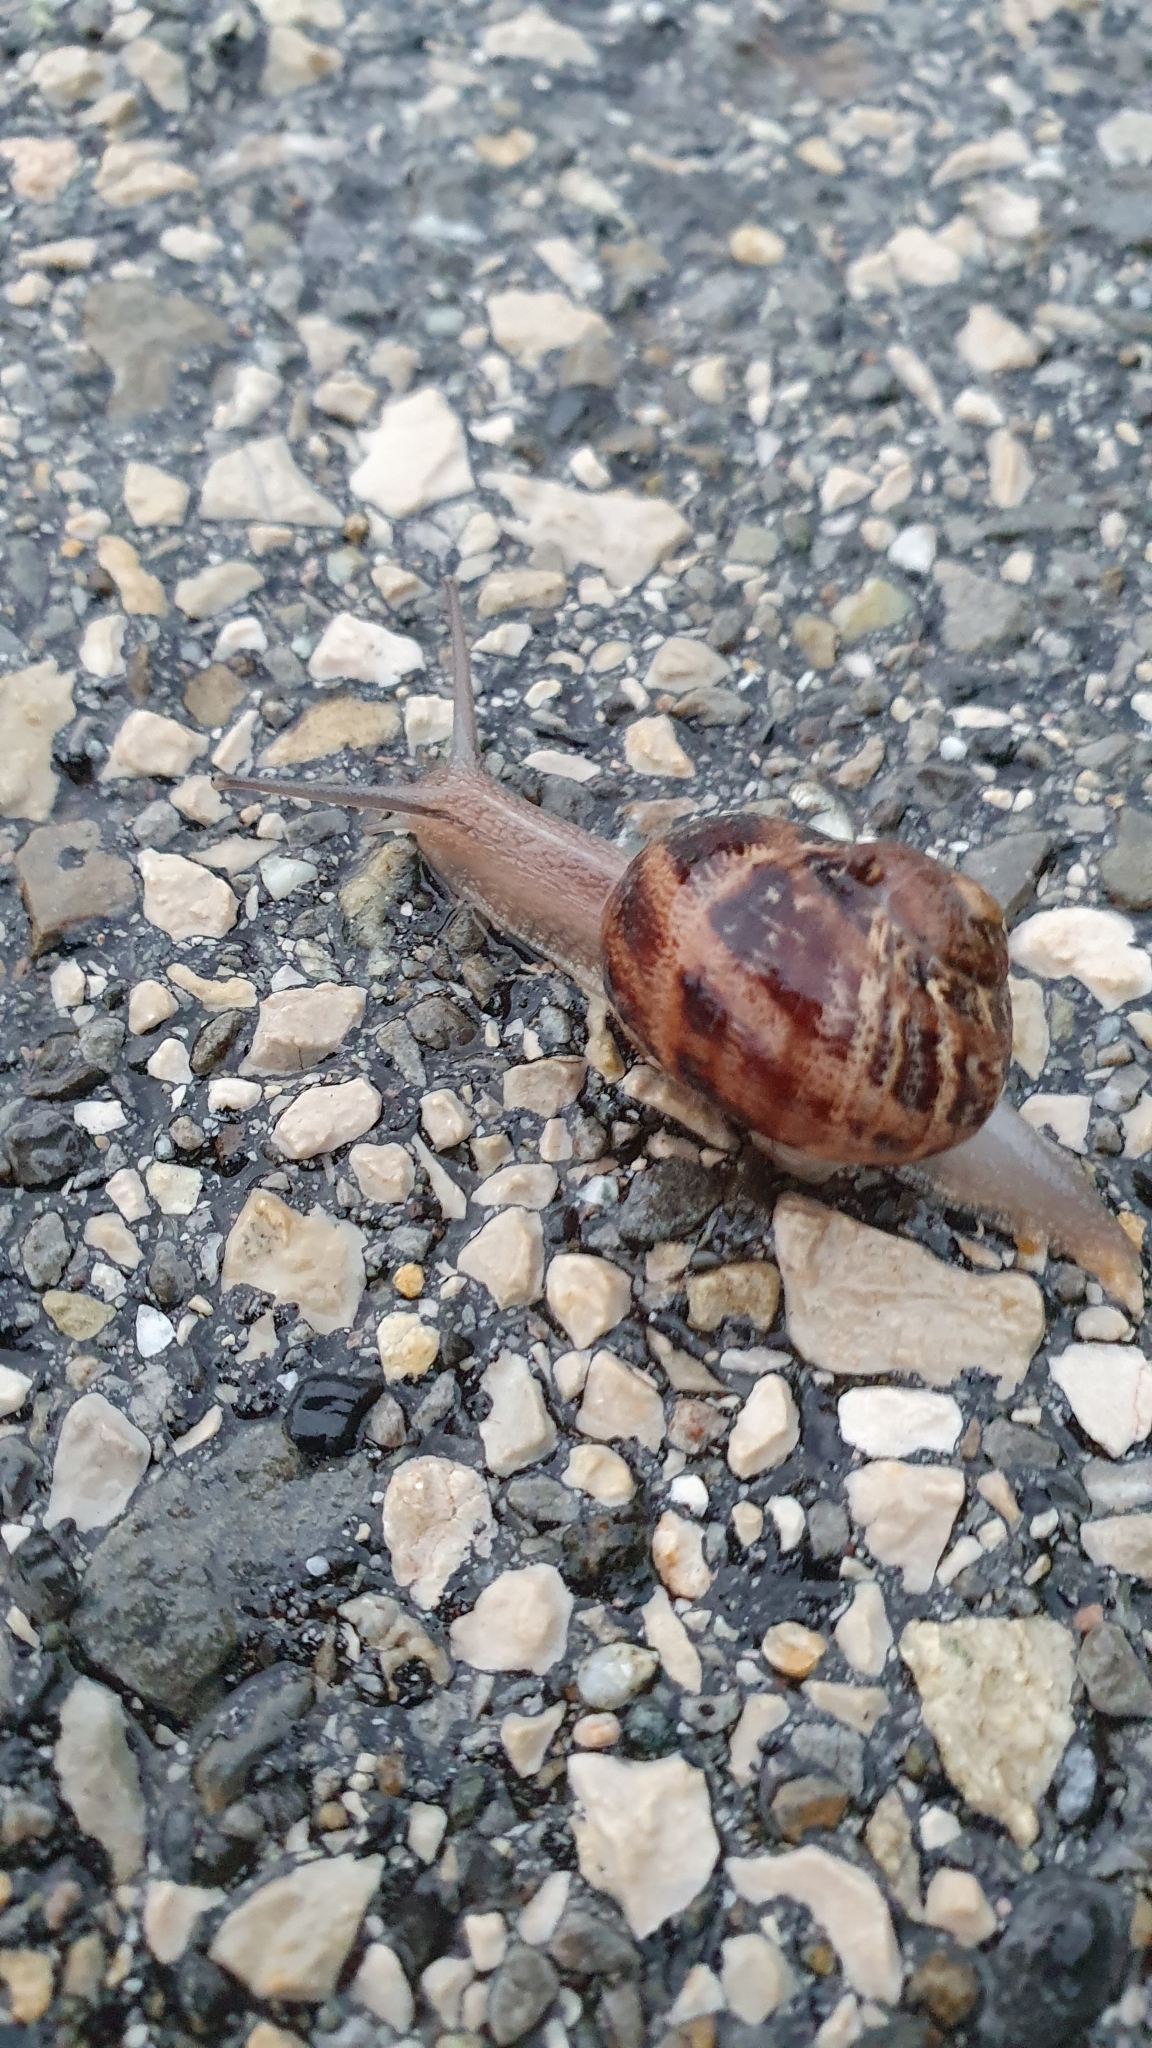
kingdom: Animalia
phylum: Mollusca
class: Gastropoda
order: Stylommatophora
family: Helicidae
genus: Cornu
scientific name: Cornu aspersum
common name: Brown garden snail
